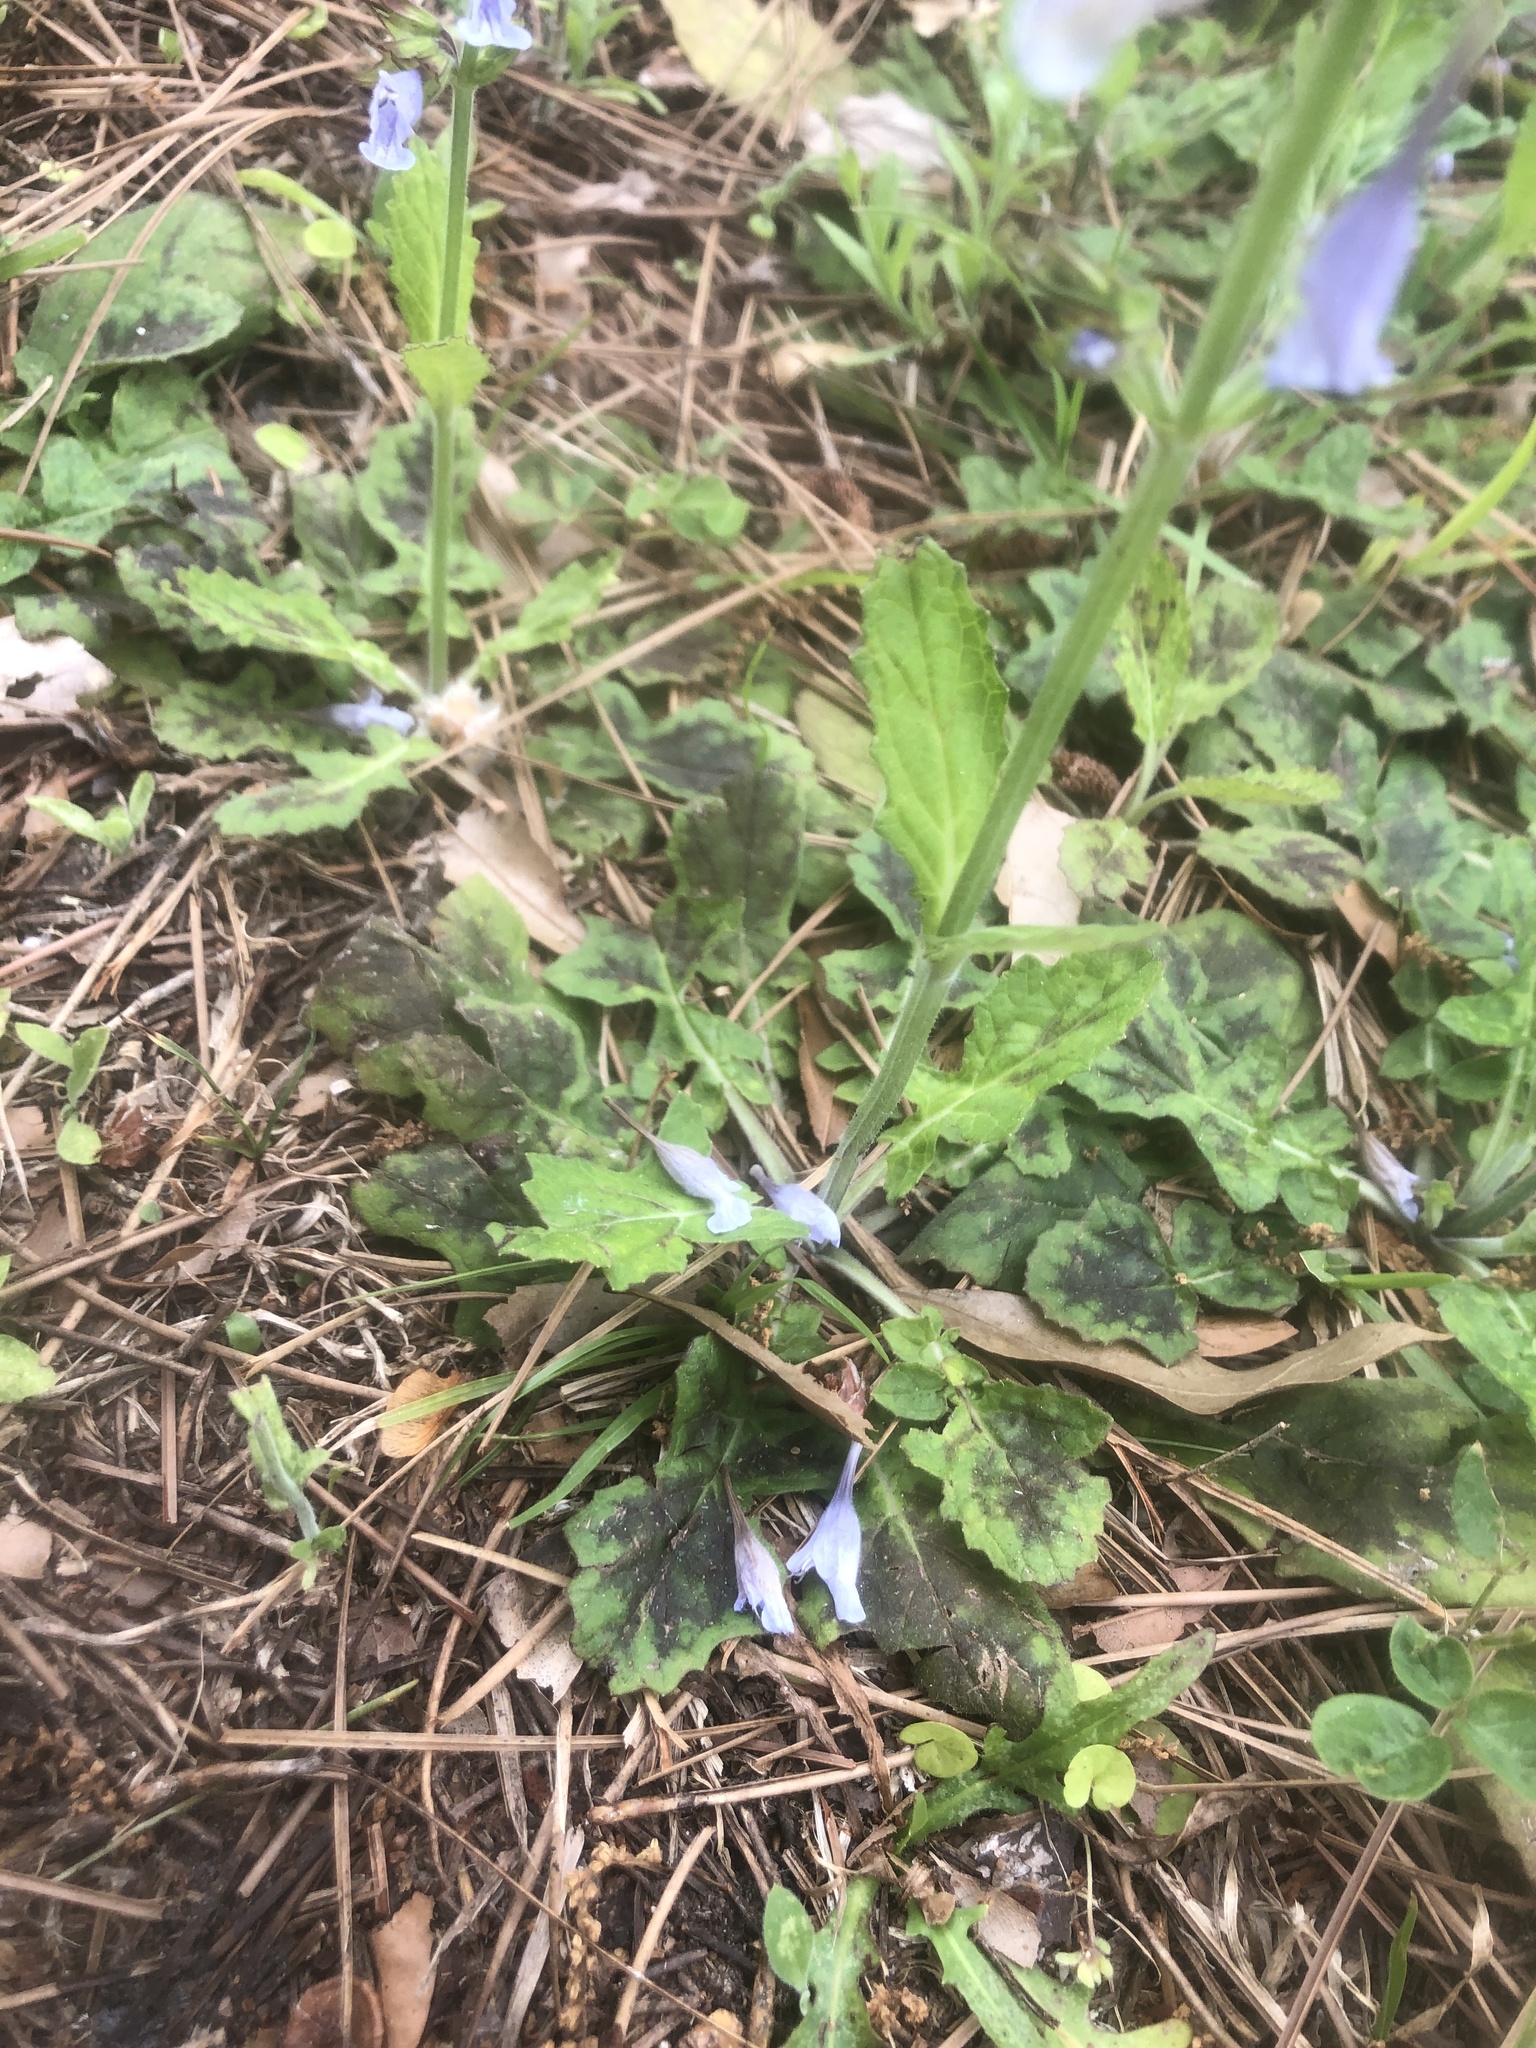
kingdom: Plantae
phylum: Tracheophyta
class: Magnoliopsida
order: Lamiales
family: Lamiaceae
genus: Salvia
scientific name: Salvia lyrata
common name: Cancerweed
